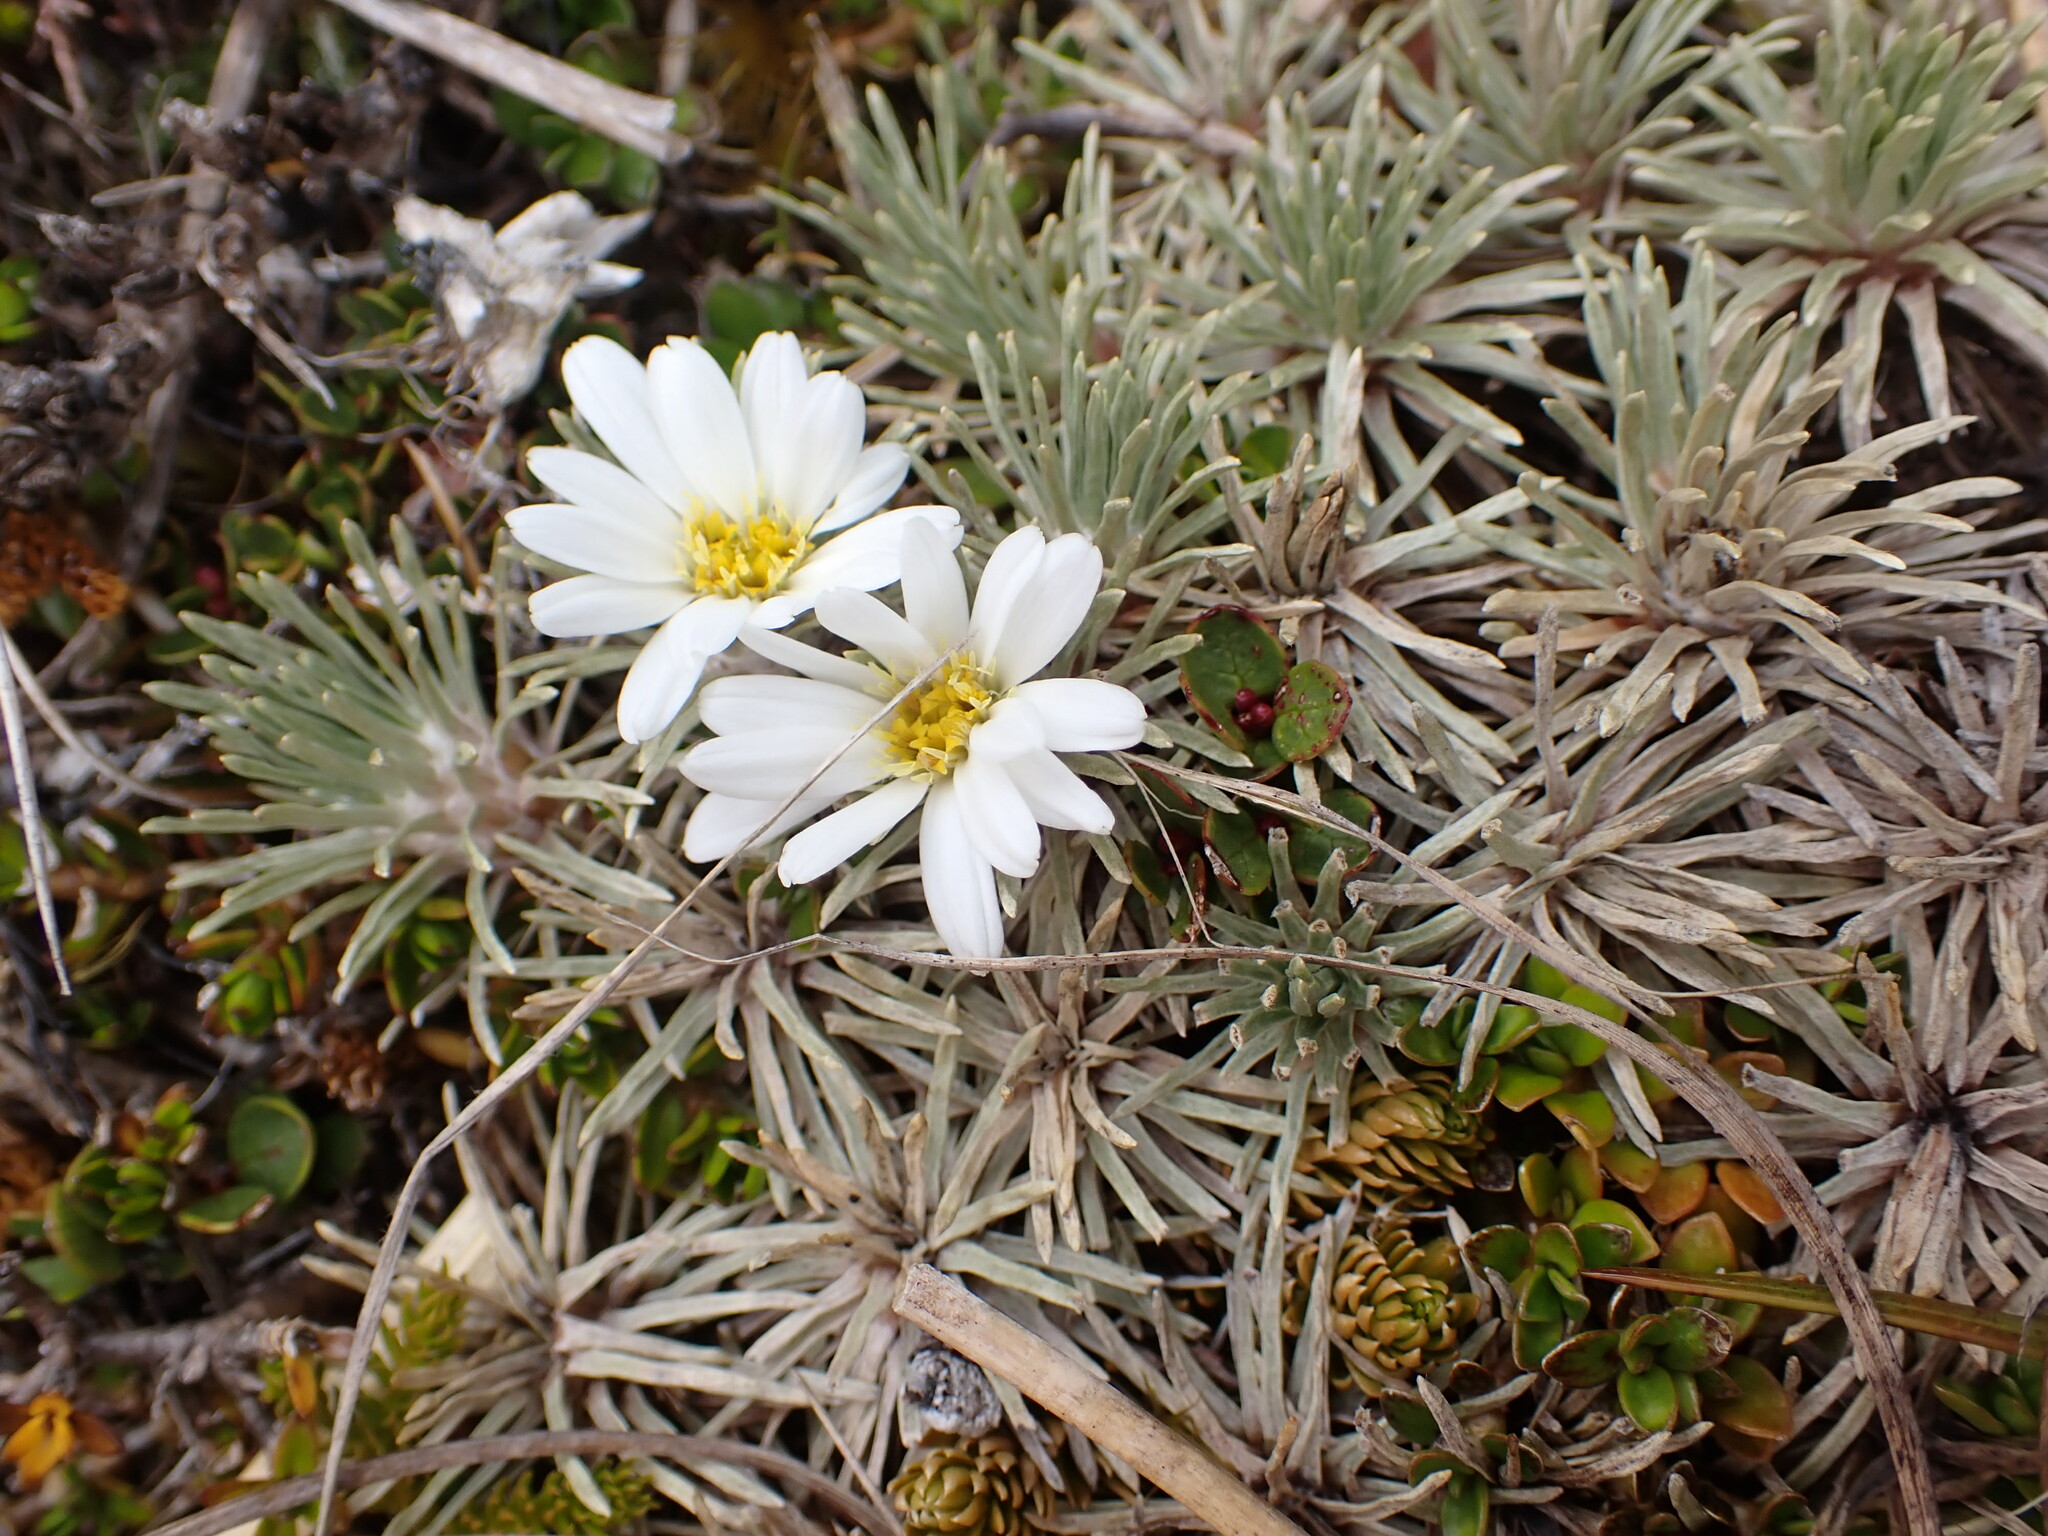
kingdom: Plantae
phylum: Tracheophyta
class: Magnoliopsida
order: Asterales
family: Asteraceae
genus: Celmisia
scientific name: Celmisia sessiliflora
